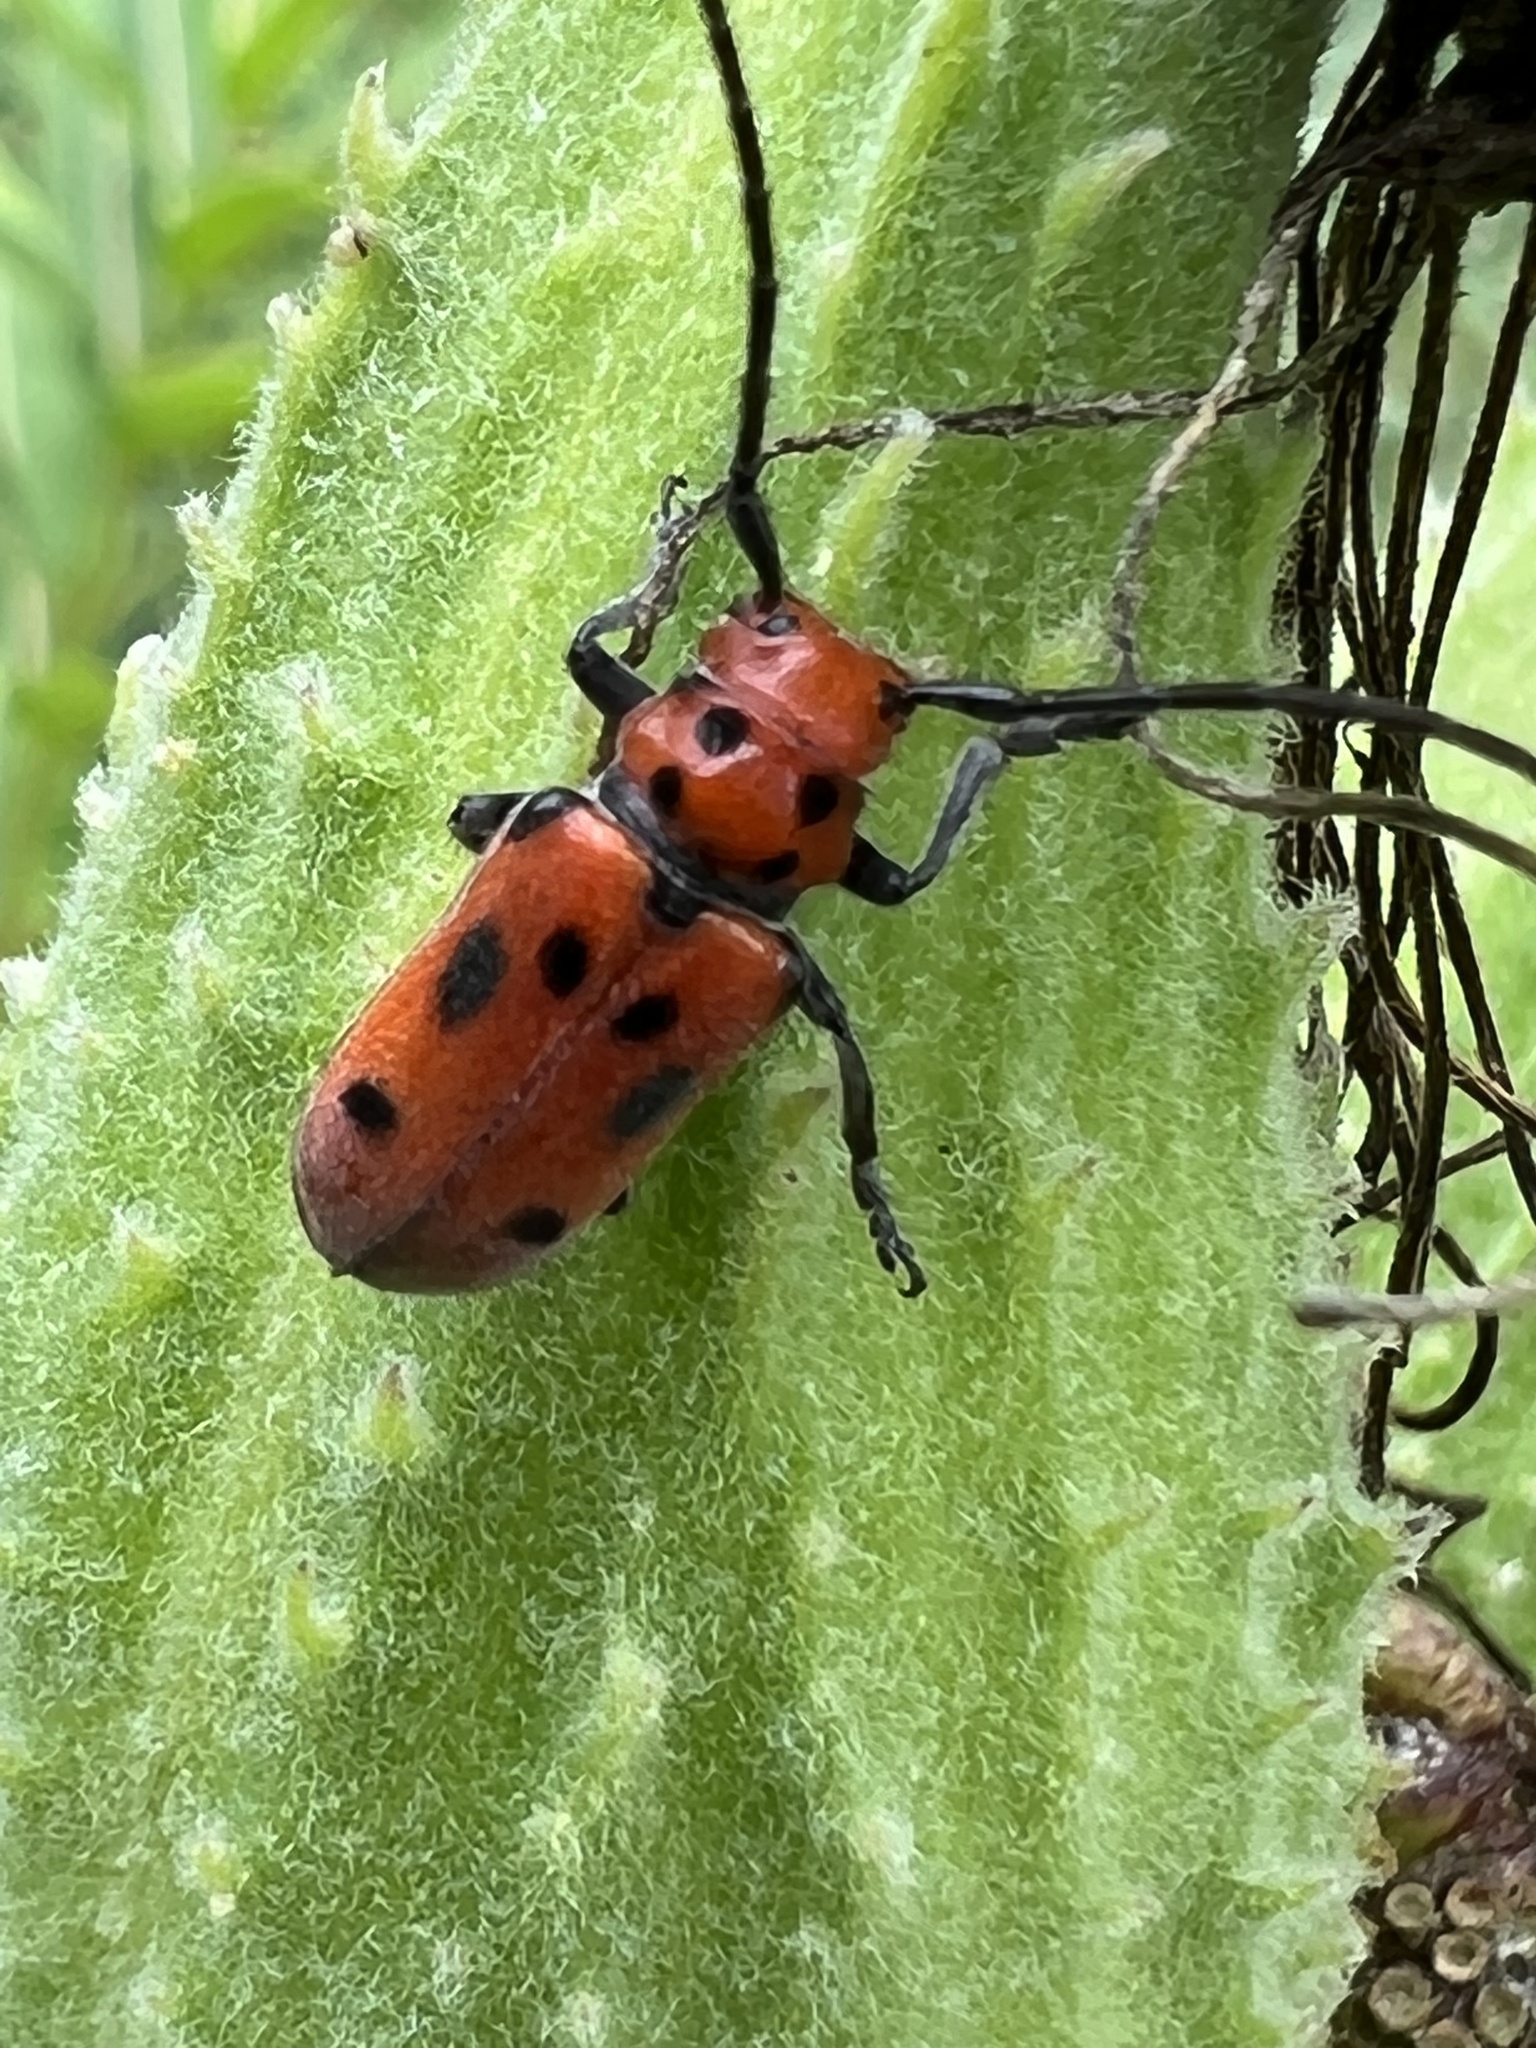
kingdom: Animalia
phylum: Arthropoda
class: Insecta
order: Coleoptera
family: Cerambycidae
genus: Tetraopes
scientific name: Tetraopes tetrophthalmus
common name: Red milkweed beetle
